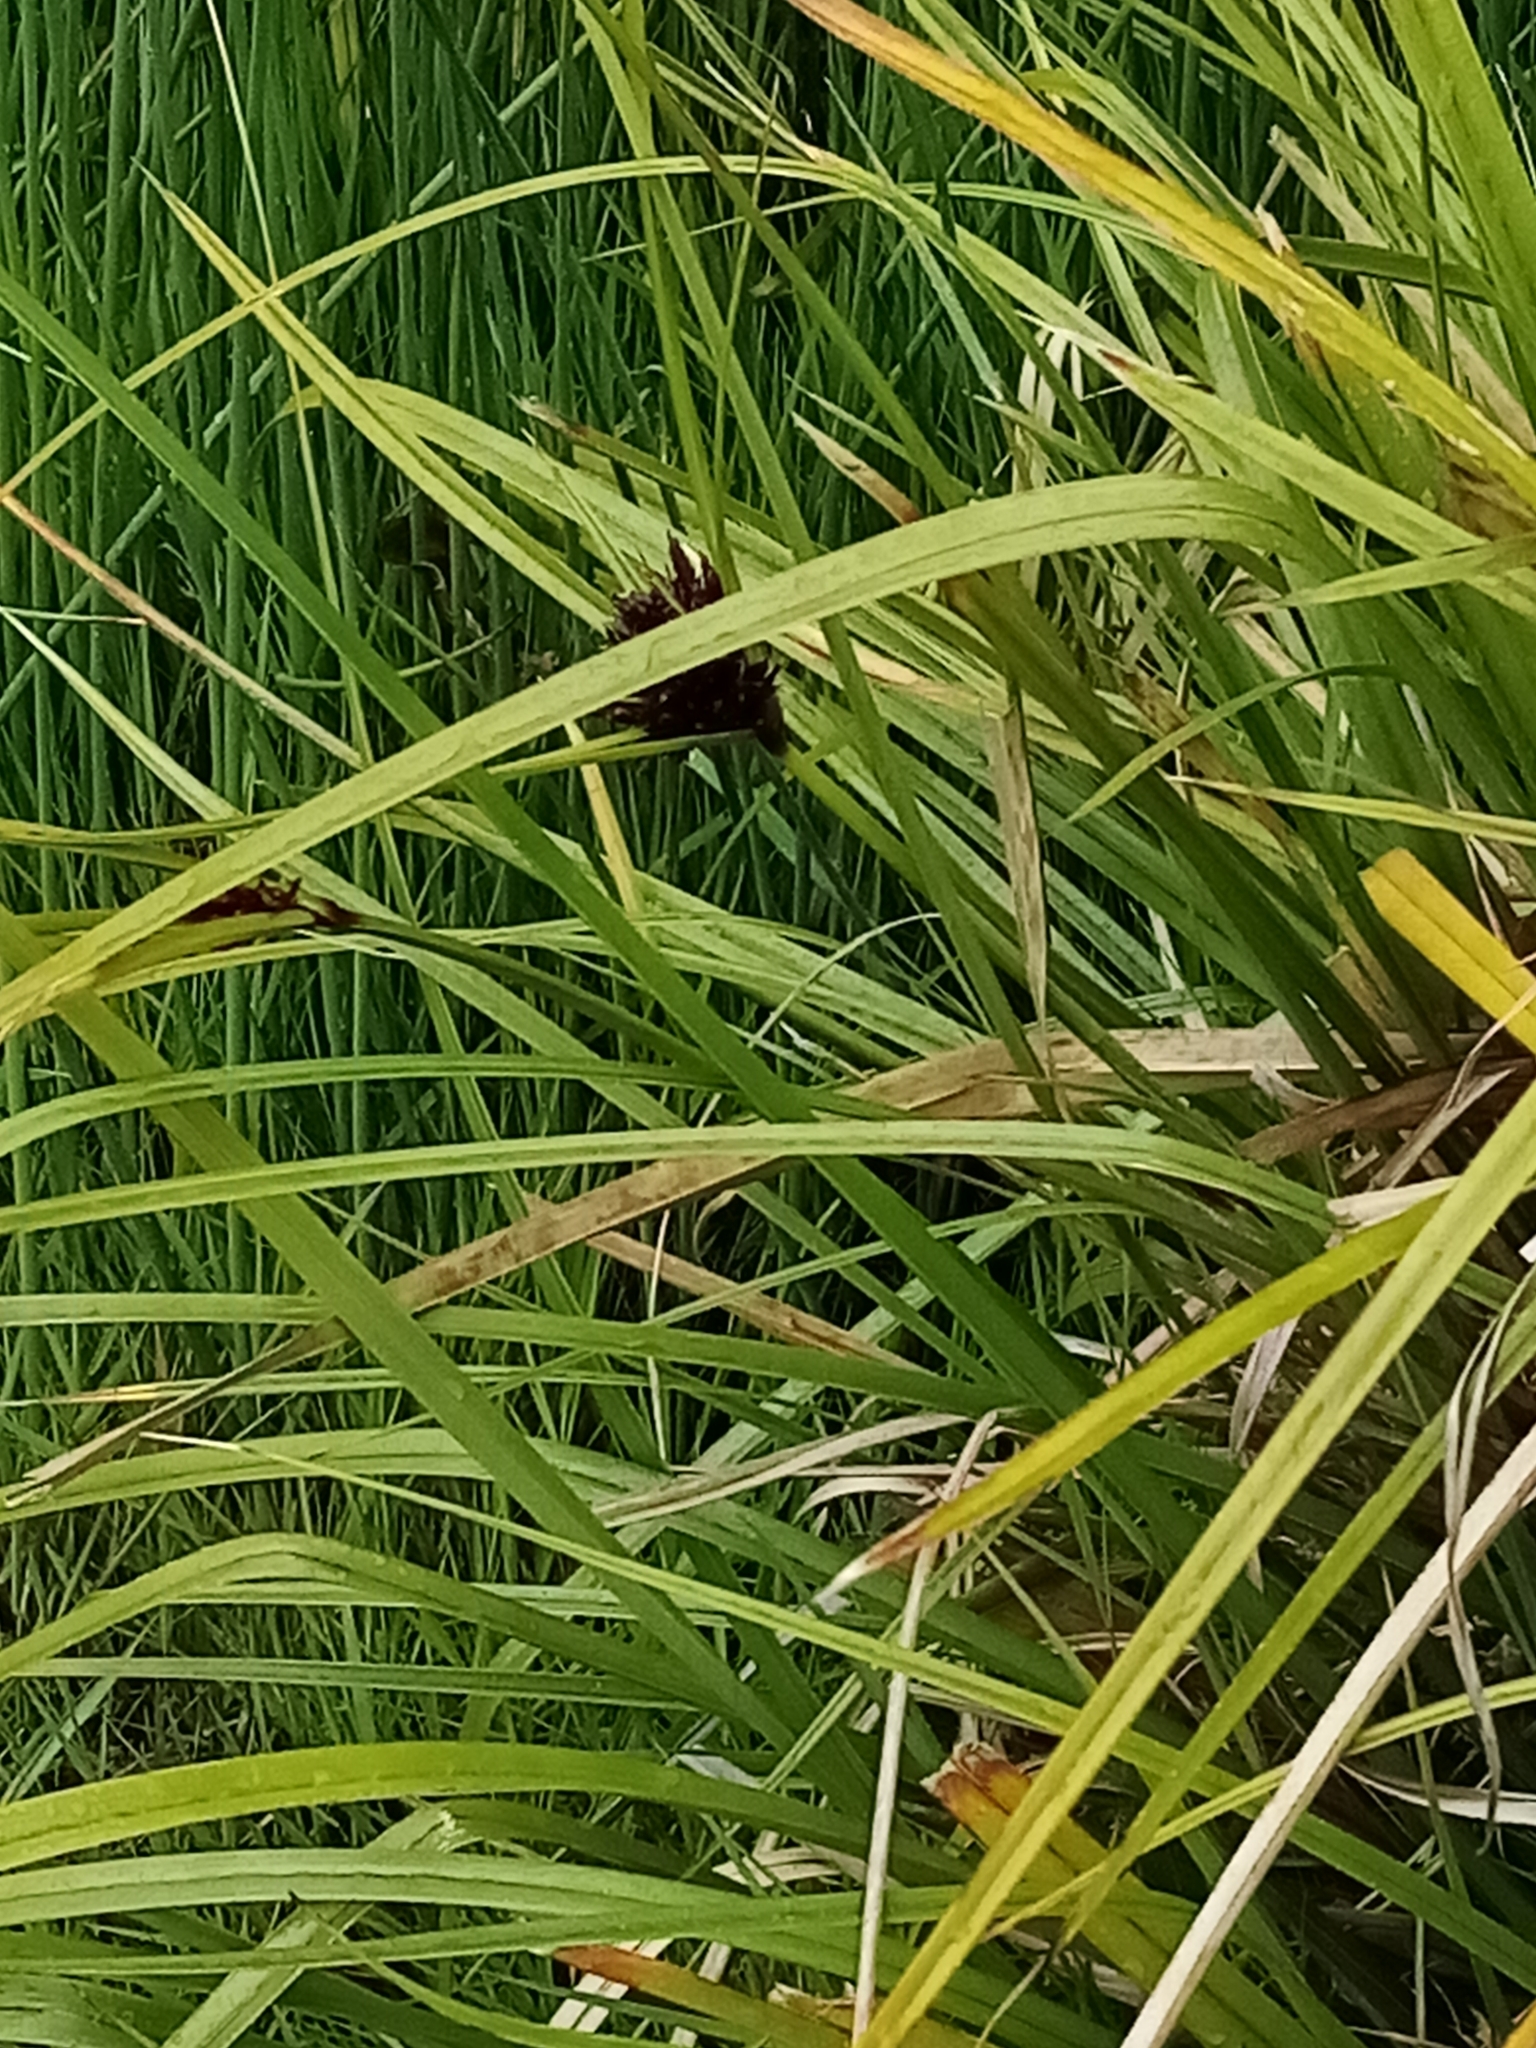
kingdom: Plantae
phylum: Tracheophyta
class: Liliopsida
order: Poales
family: Cyperaceae
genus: Cyperus
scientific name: Cyperus ustulatus
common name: Giant umbrella-sedge
